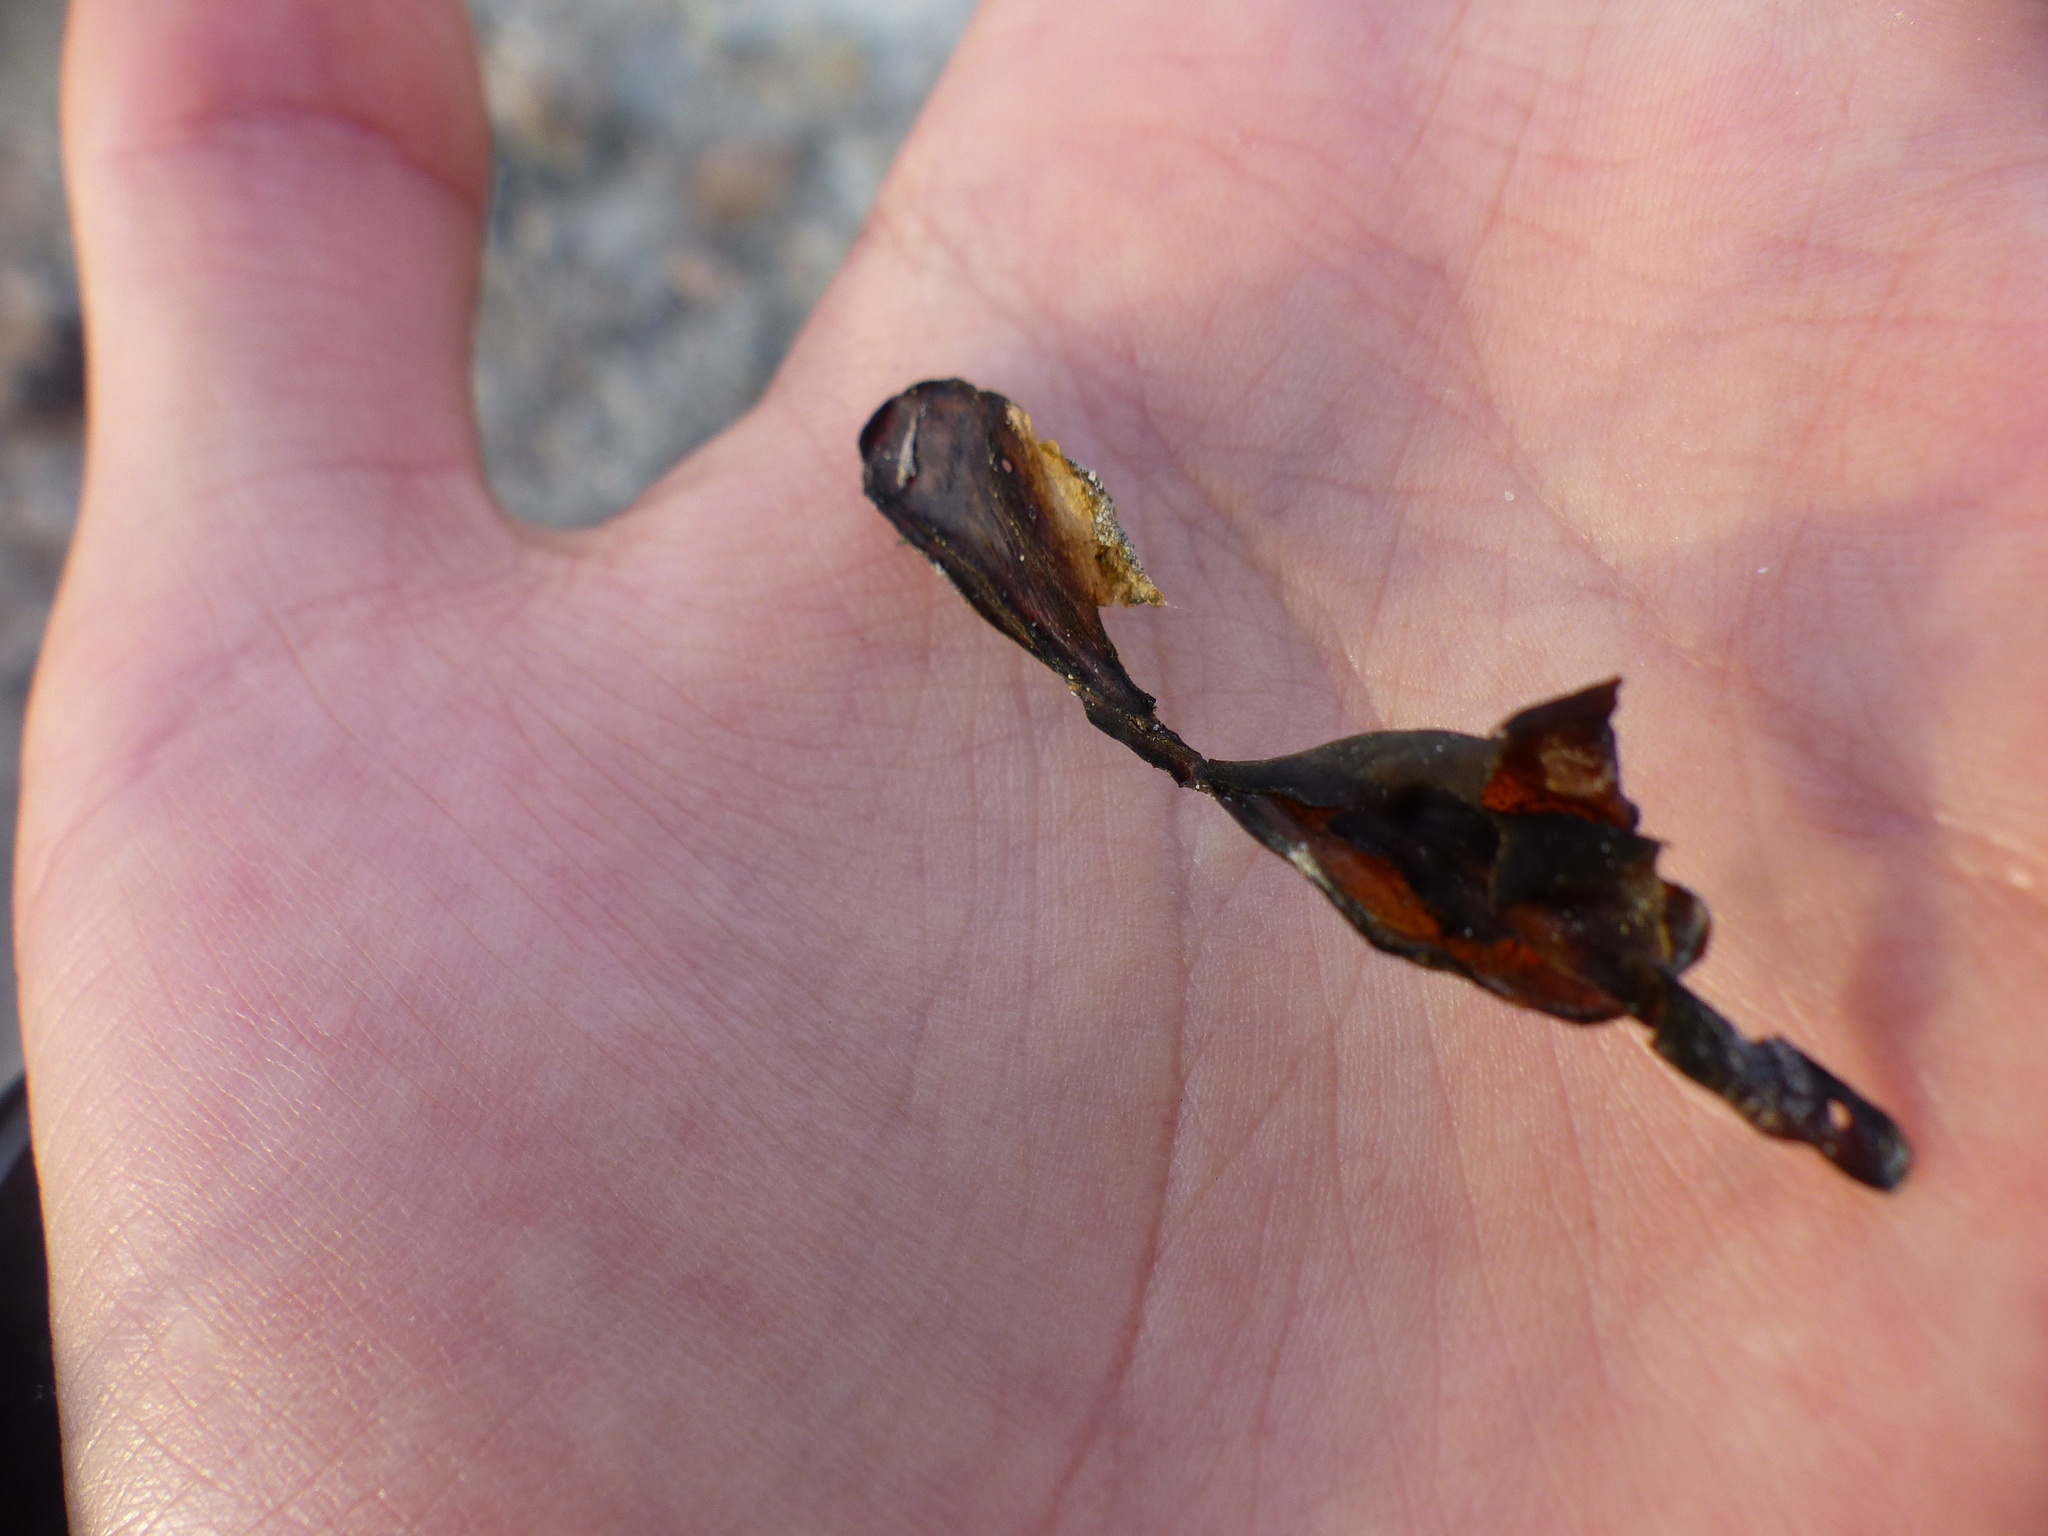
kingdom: Bacteria
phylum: Cyanobacteria
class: Cyanobacteriia
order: Cyanobacteriales
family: Nostocaceae
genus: Nostoc
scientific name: Nostoc commune
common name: Star jelly
